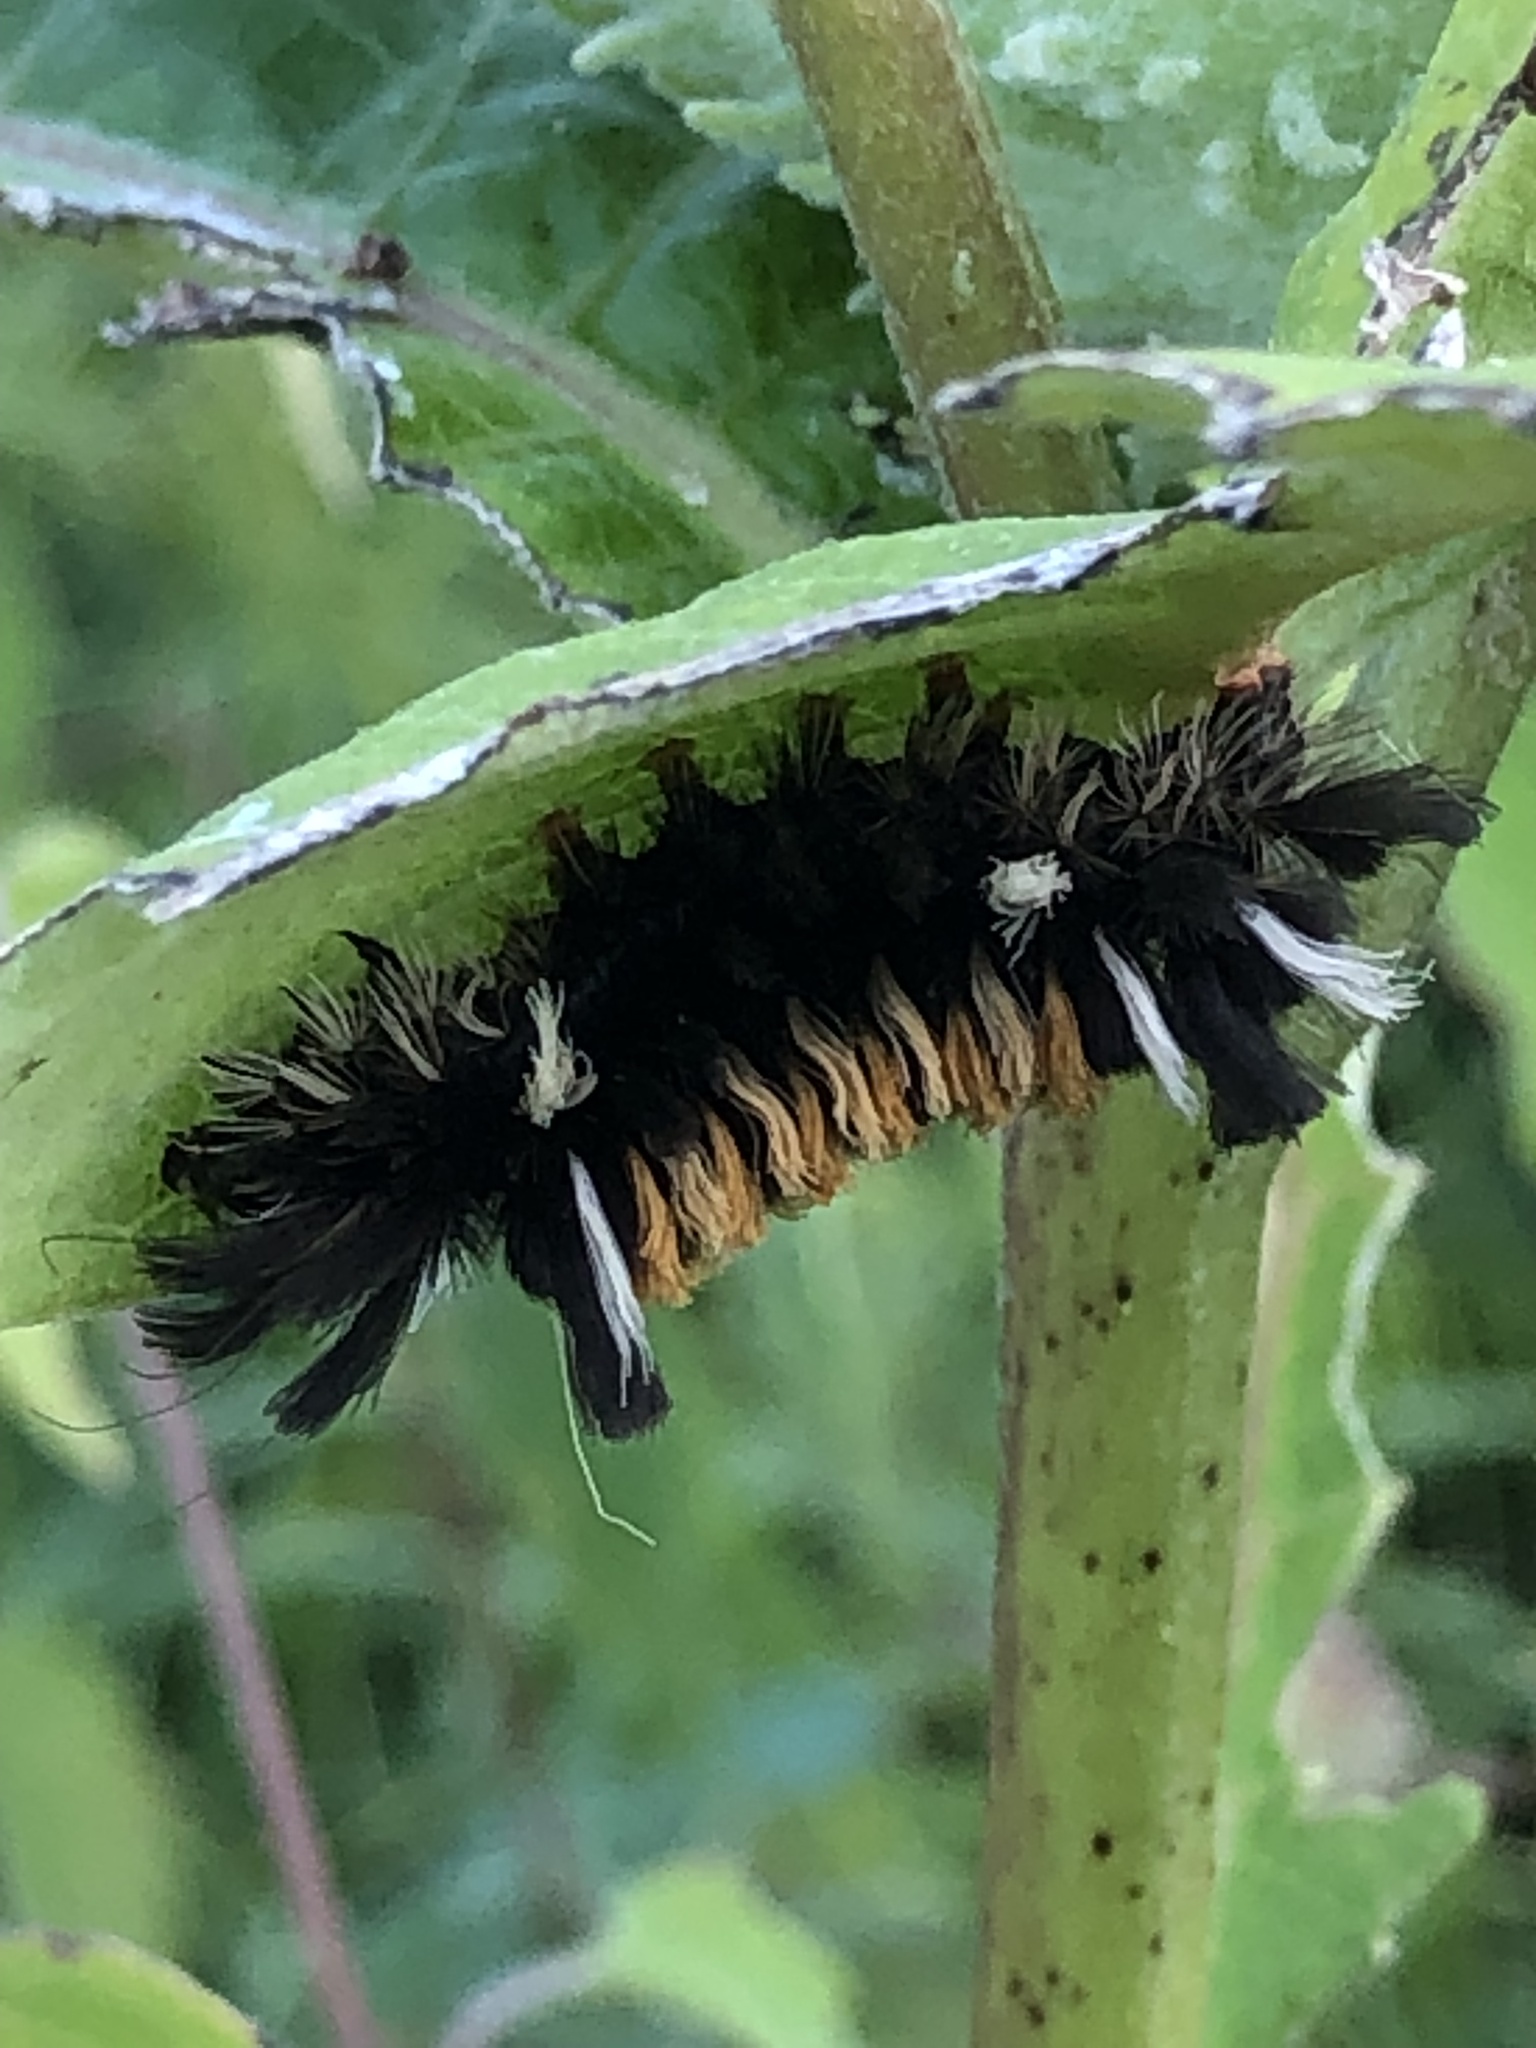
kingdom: Animalia
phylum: Arthropoda
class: Insecta
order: Lepidoptera
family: Erebidae
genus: Euchaetes
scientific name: Euchaetes egle
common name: Milkweed tussock moth
